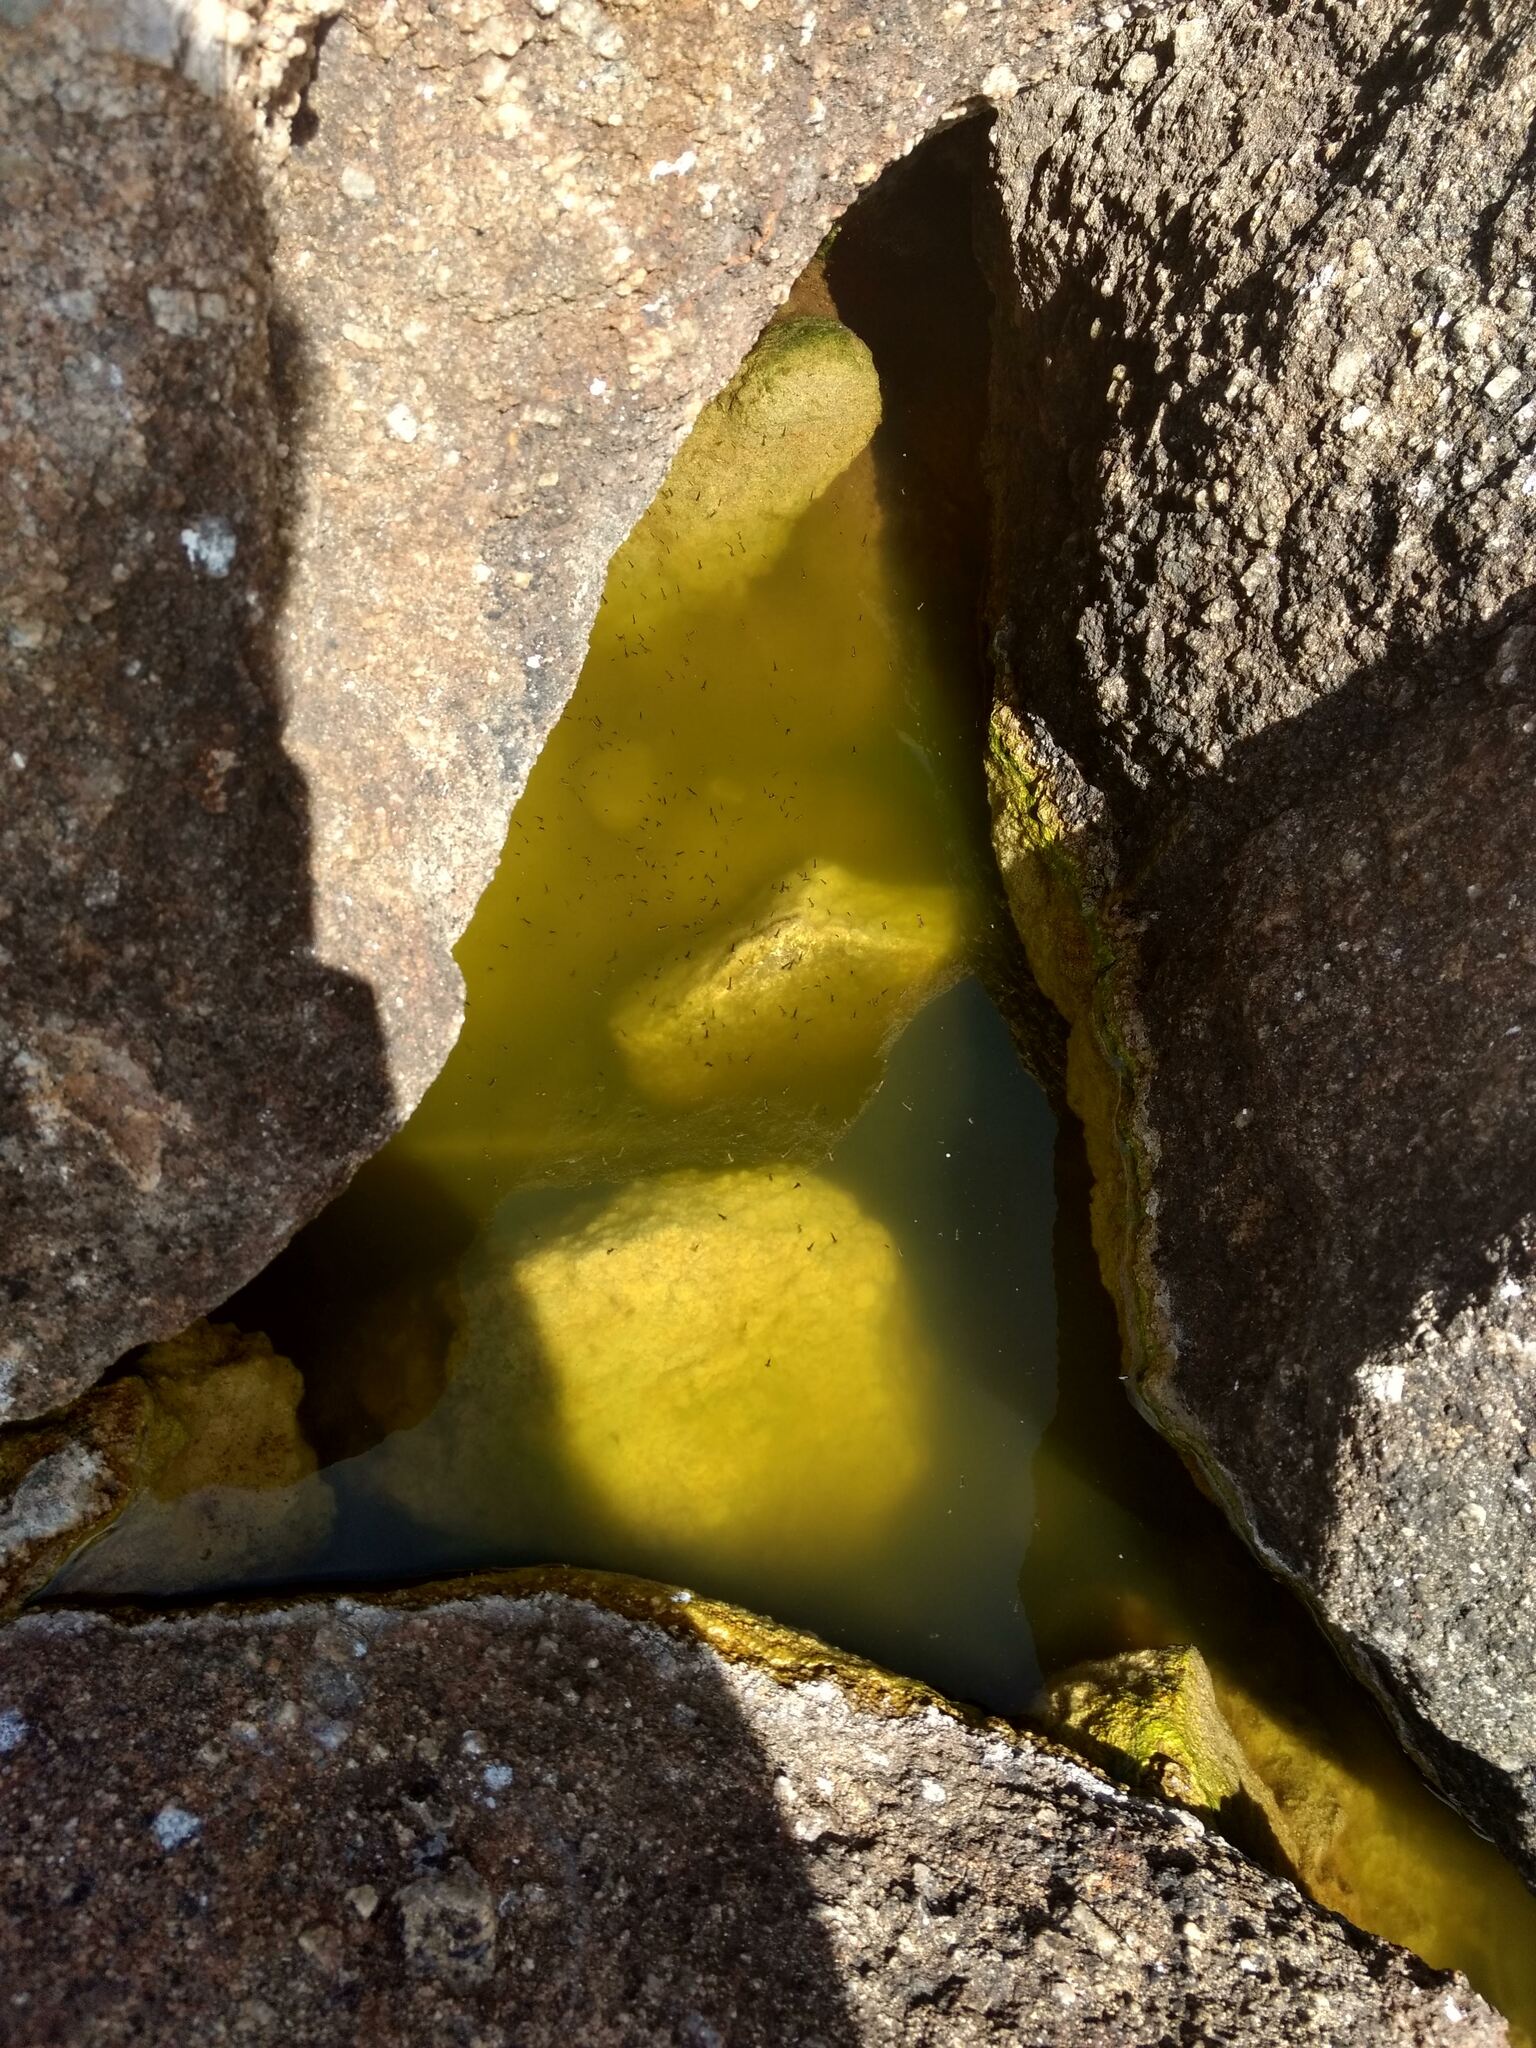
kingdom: Animalia
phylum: Arthropoda
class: Insecta
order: Diptera
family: Culicidae
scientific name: Culicidae
